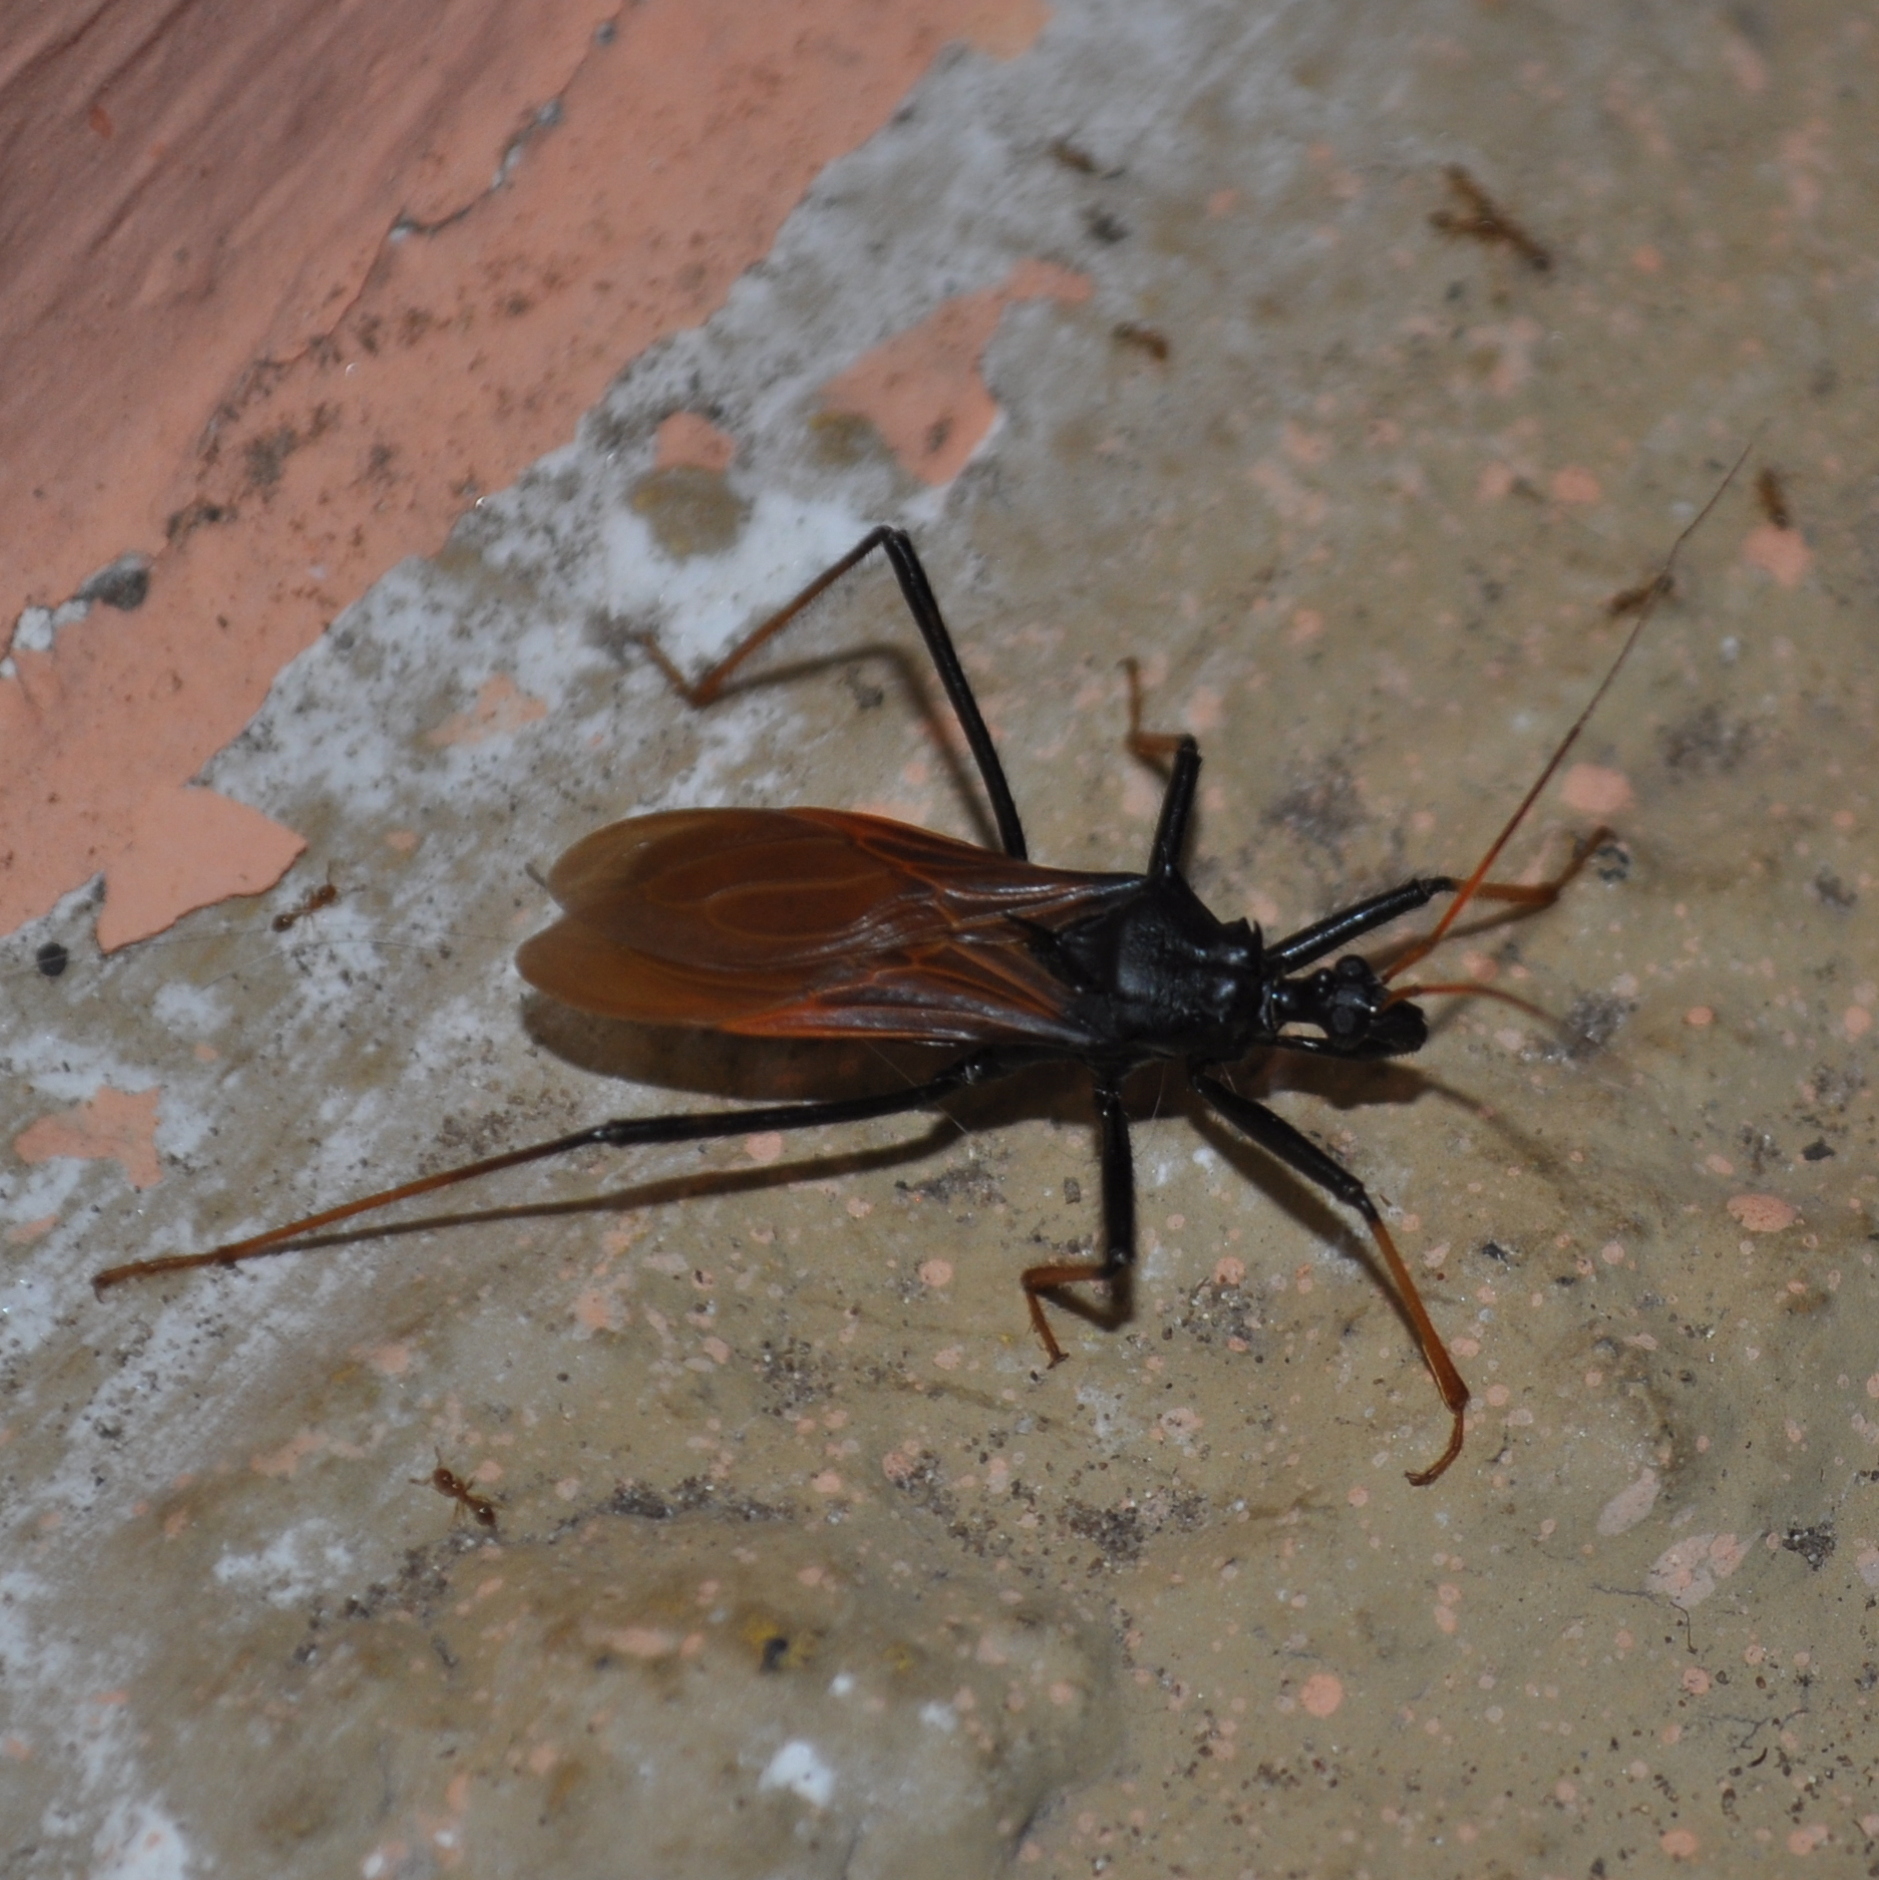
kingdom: Animalia
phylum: Arthropoda
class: Insecta
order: Hemiptera
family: Reduviidae
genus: Zelurus
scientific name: Zelurus femoralis
